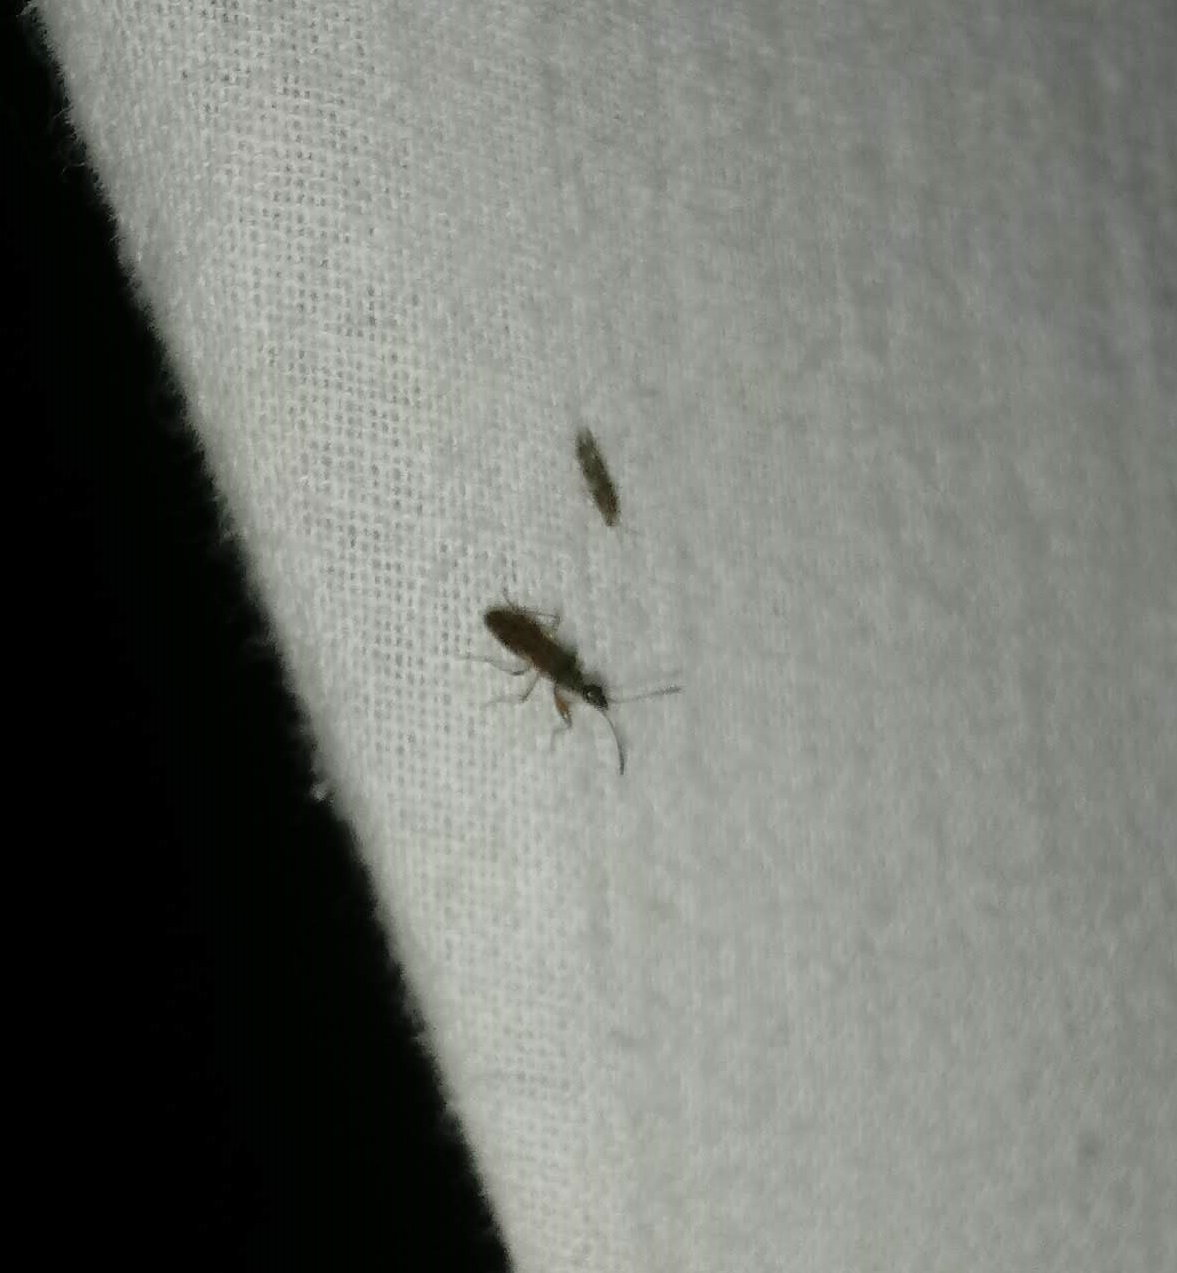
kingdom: Animalia
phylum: Arthropoda
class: Insecta
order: Hemiptera
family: Rhyparochromidae
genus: Myodocha
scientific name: Myodocha serripes
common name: Long-necked seed bug
